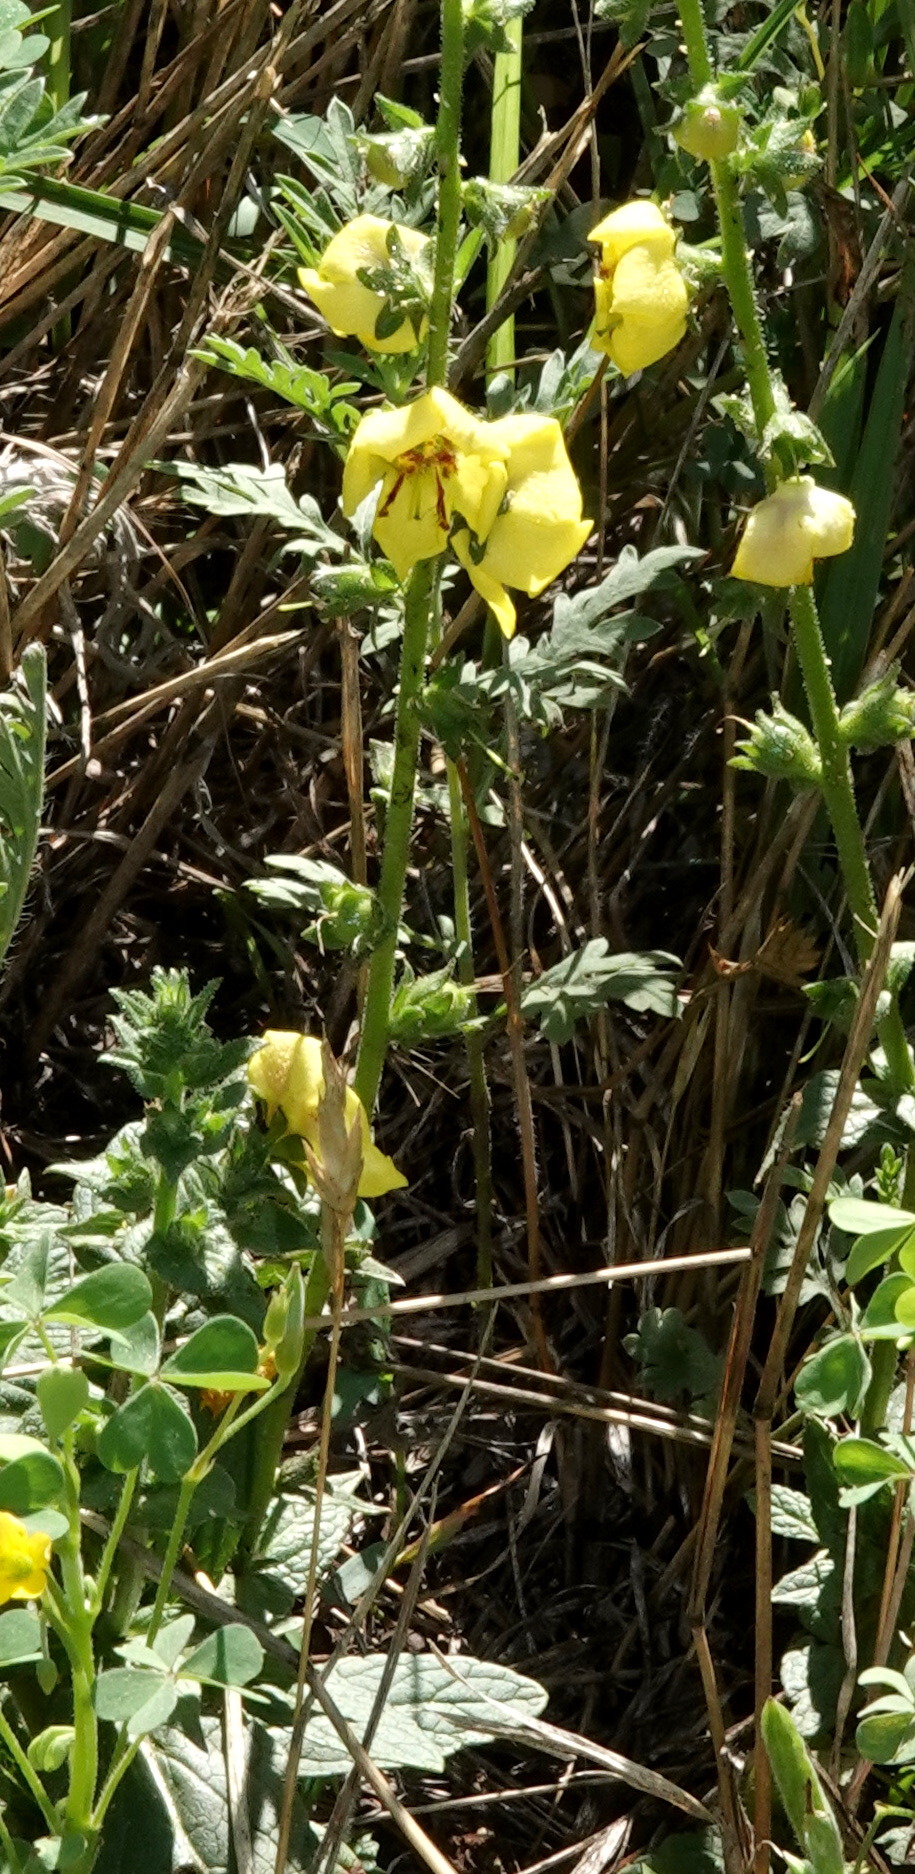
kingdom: Plantae
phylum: Tracheophyta
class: Magnoliopsida
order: Lamiales
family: Scrophulariaceae
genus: Verbascum
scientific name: Verbascum virgatum
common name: Twiggy mullein
